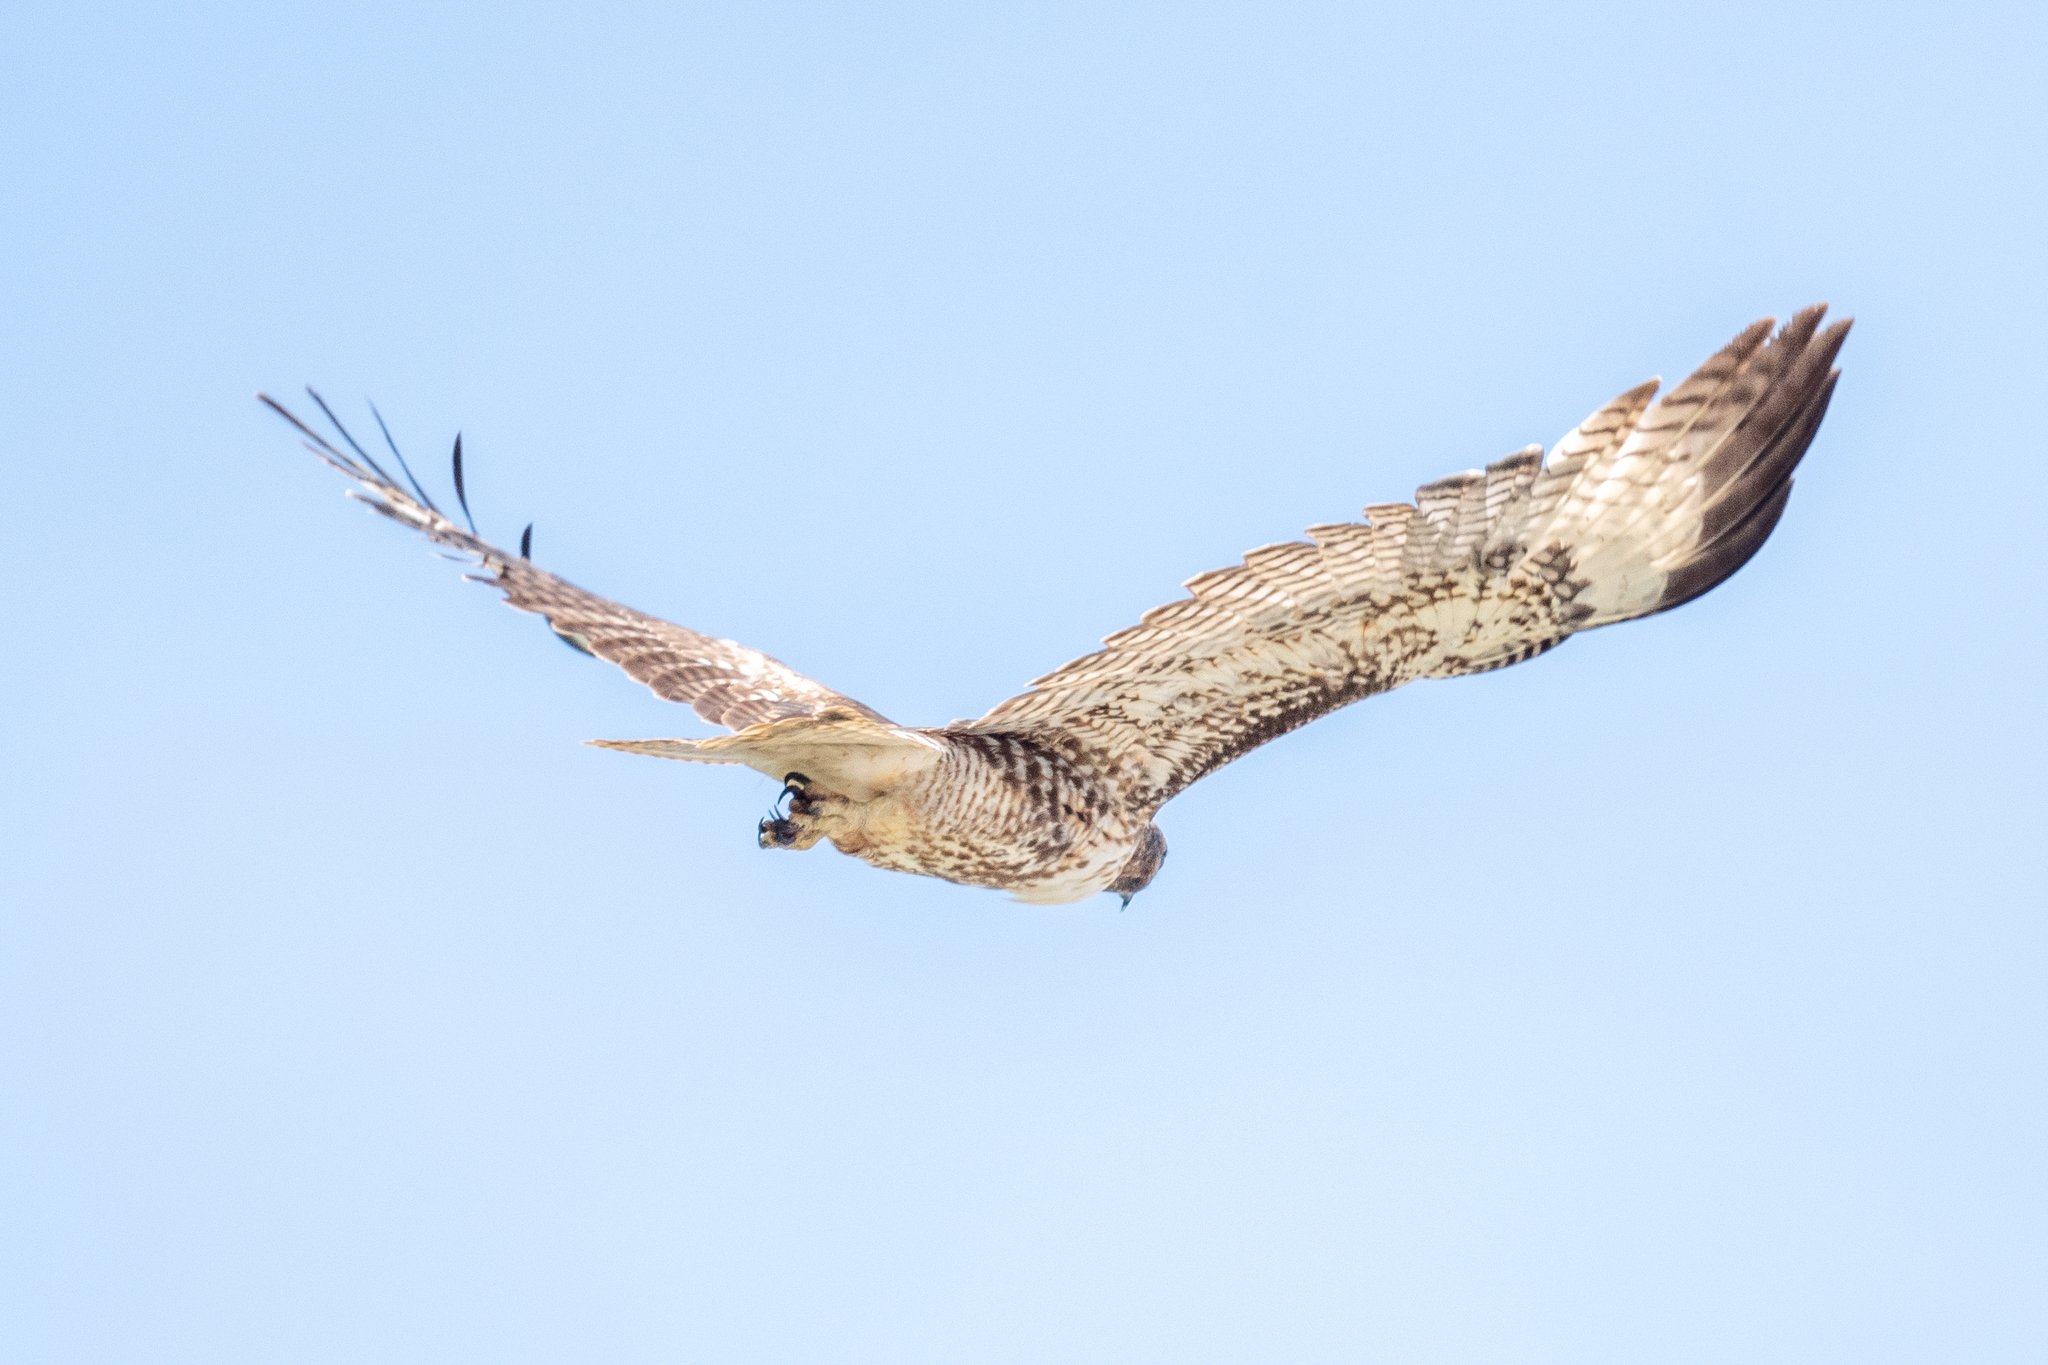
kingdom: Animalia
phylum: Chordata
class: Aves
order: Accipitriformes
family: Accipitridae
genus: Buteo
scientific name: Buteo jamaicensis
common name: Red-tailed hawk
